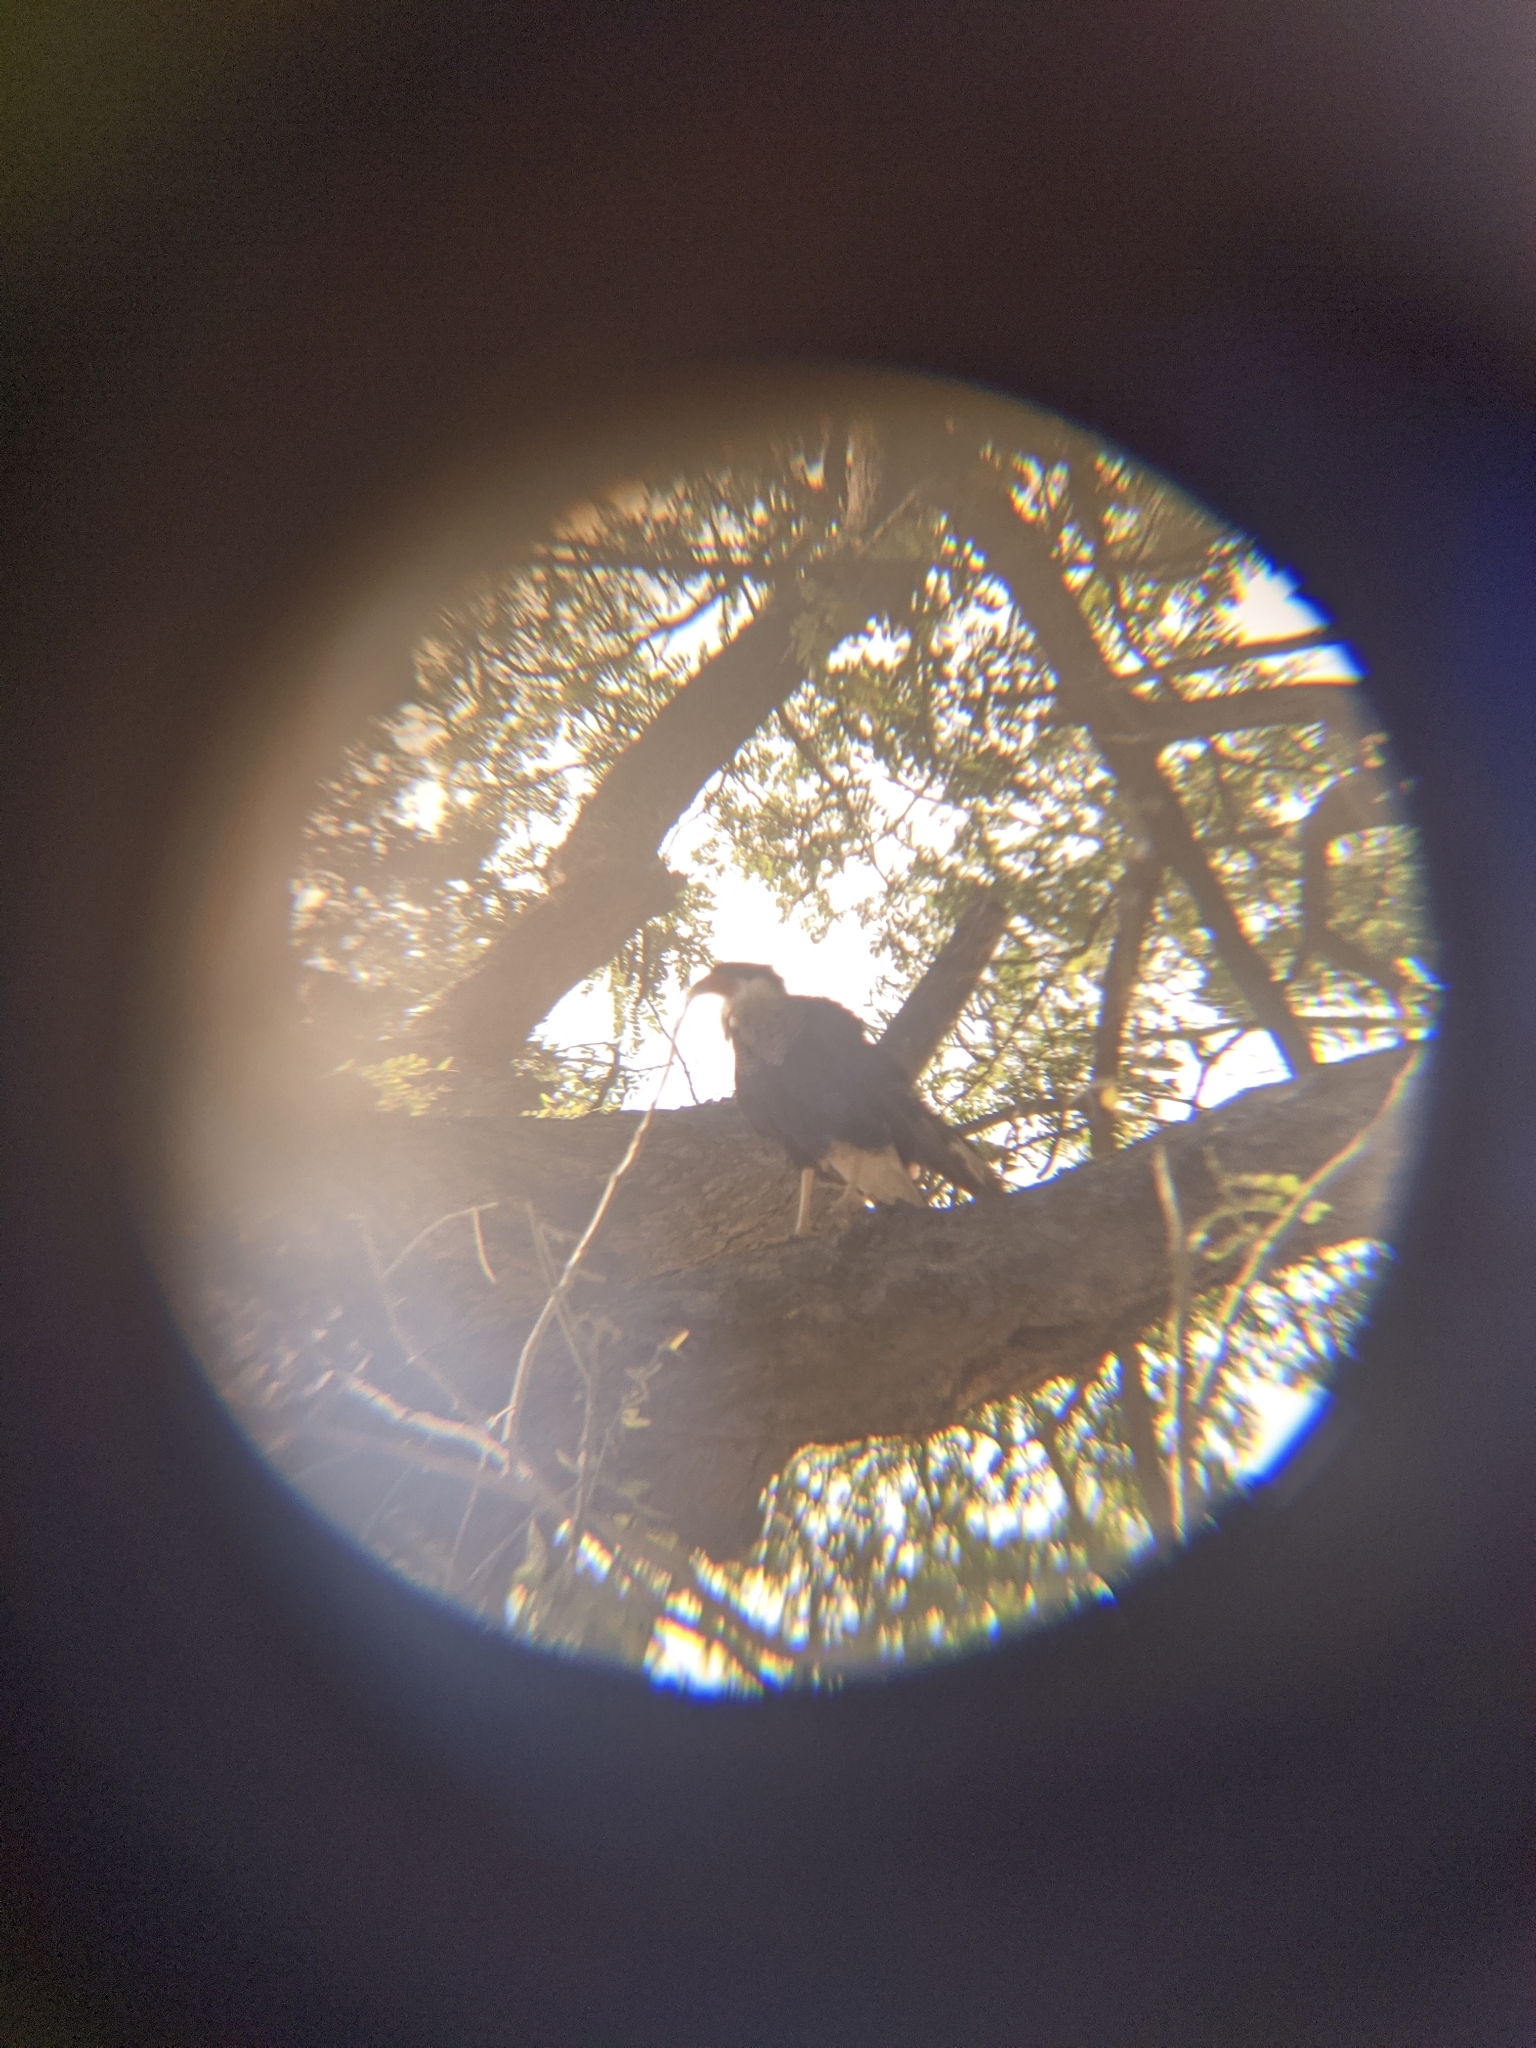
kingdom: Animalia
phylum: Chordata
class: Aves
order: Falconiformes
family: Falconidae
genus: Caracara
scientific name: Caracara plancus
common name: Southern caracara
